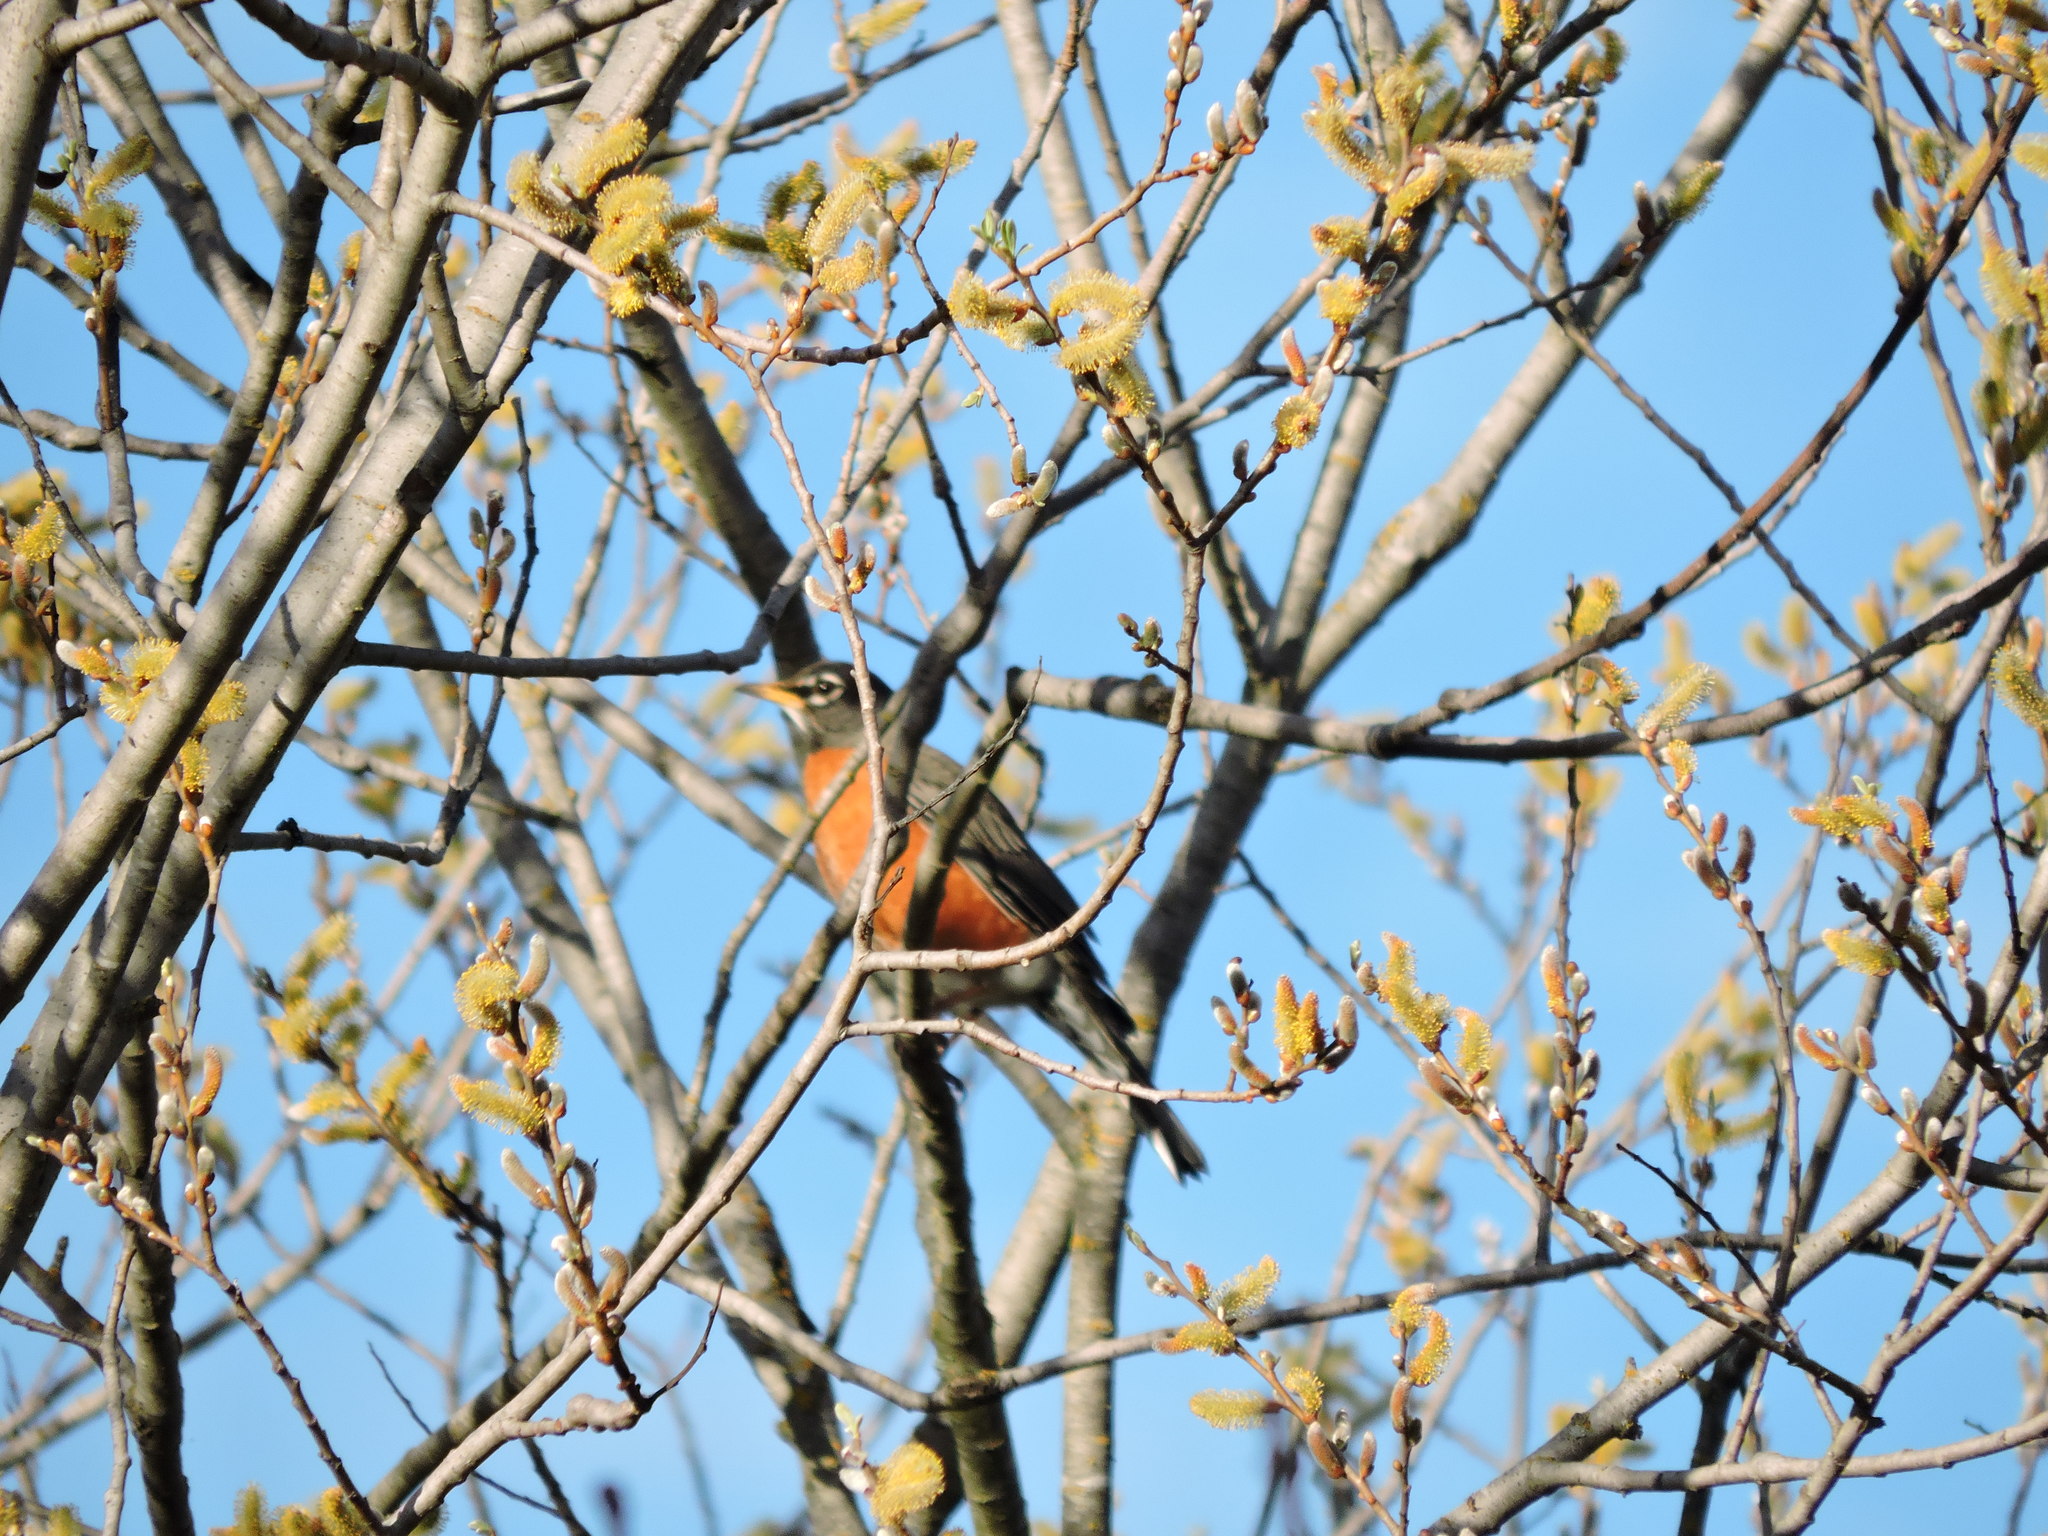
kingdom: Animalia
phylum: Chordata
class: Aves
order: Passeriformes
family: Turdidae
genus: Turdus
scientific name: Turdus migratorius
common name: American robin
